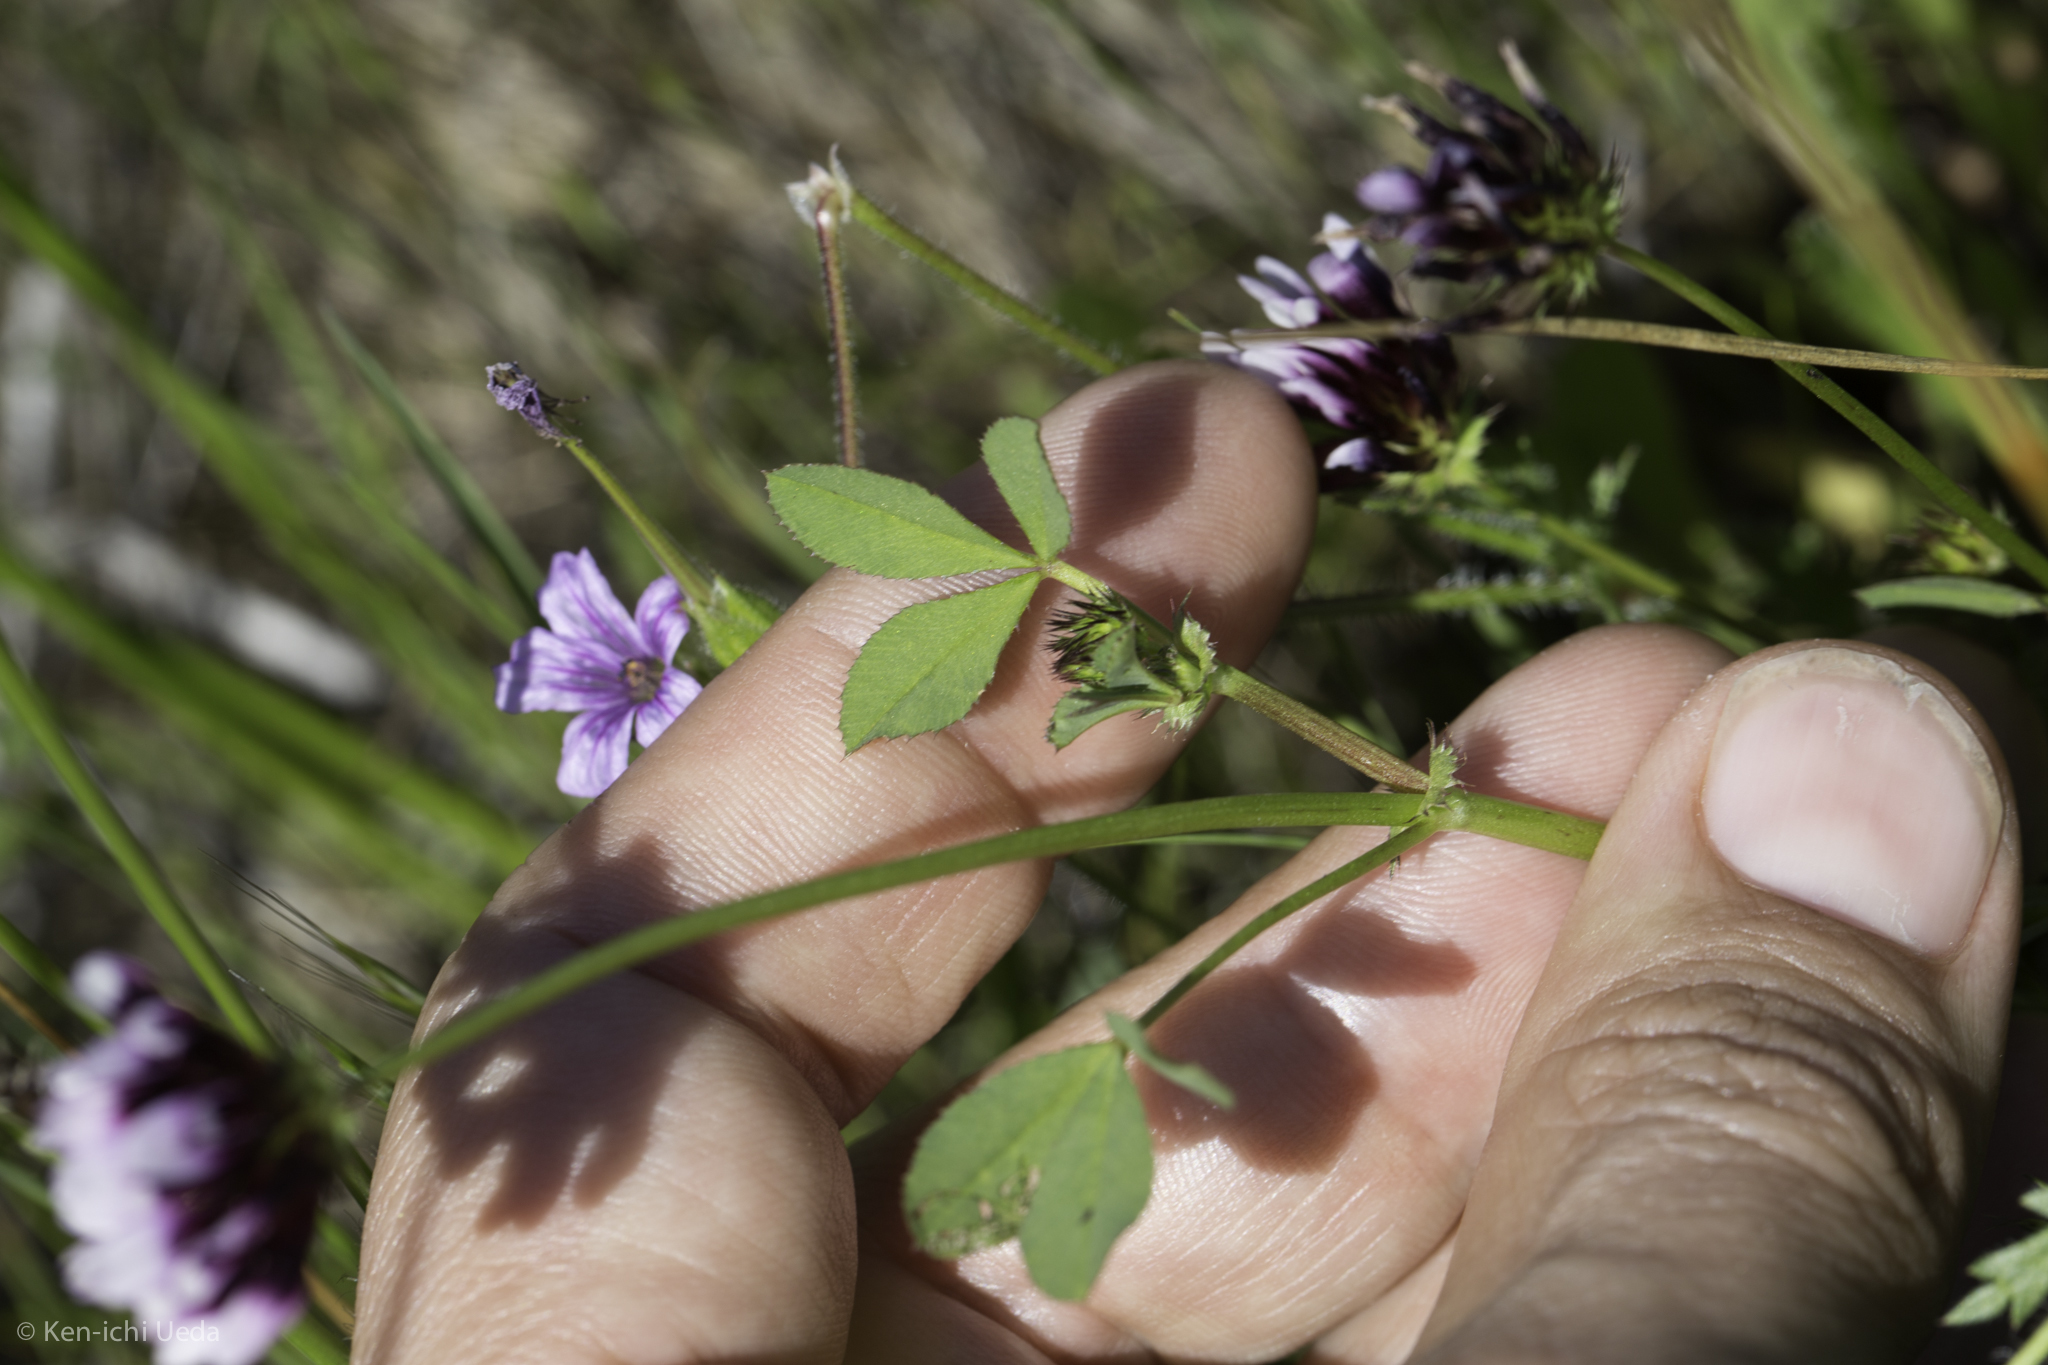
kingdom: Plantae
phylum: Tracheophyta
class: Magnoliopsida
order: Fabales
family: Fabaceae
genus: Trifolium
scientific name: Trifolium variegatum
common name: Whitetip clover
